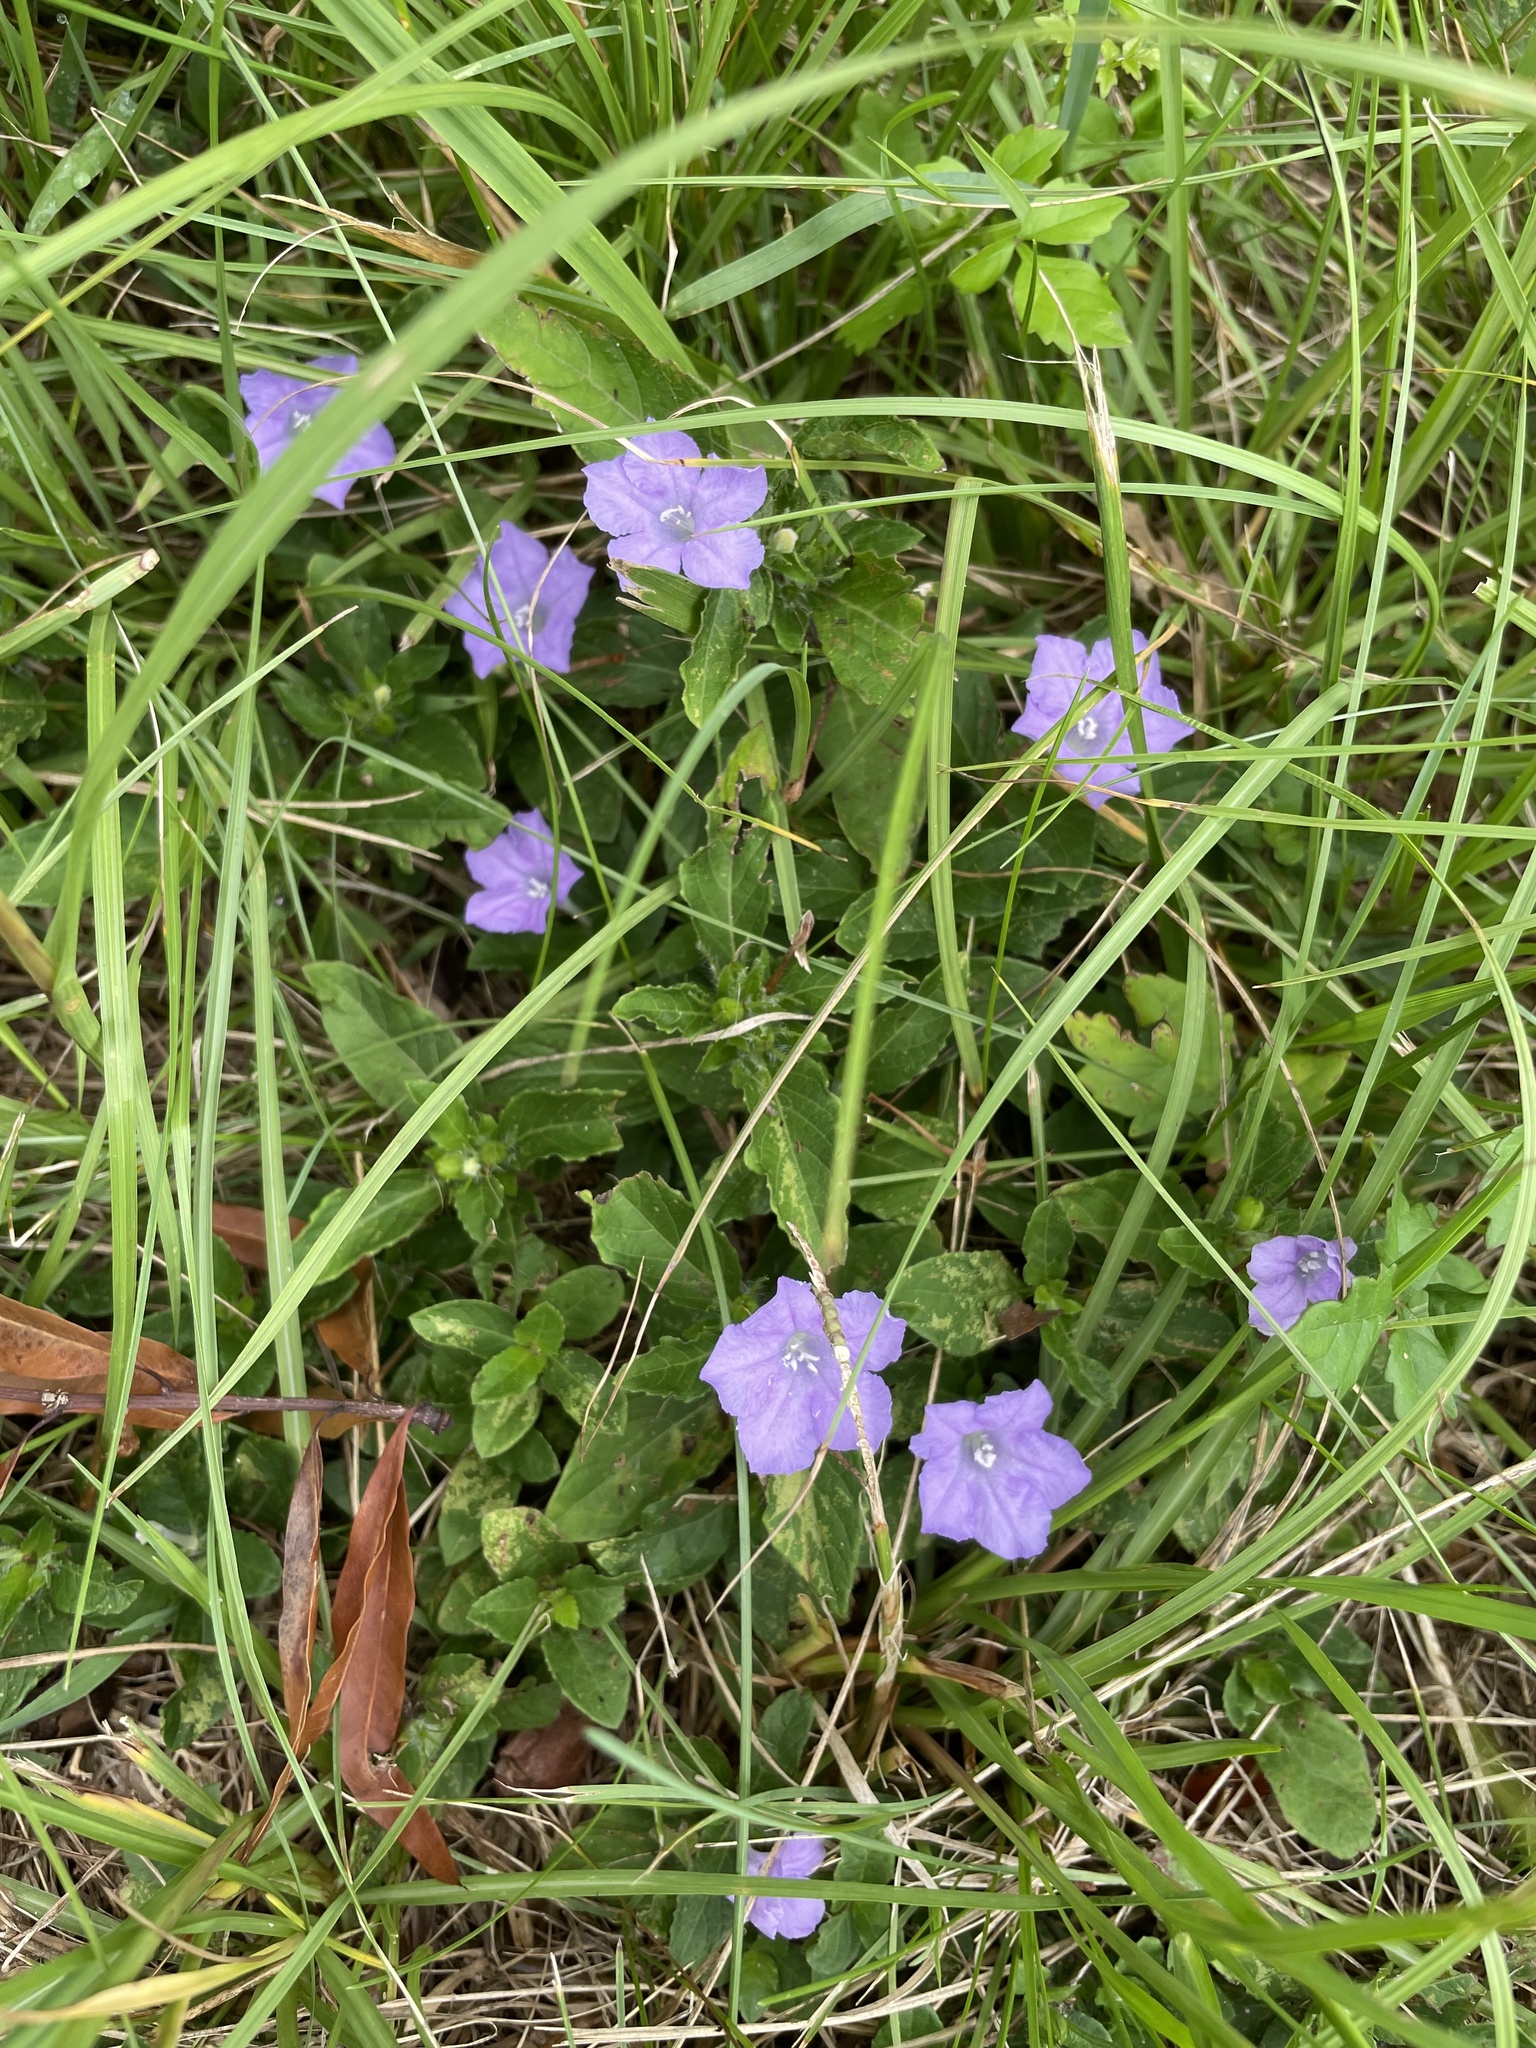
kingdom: Plantae
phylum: Tracheophyta
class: Magnoliopsida
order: Lamiales
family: Acanthaceae
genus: Ruellia
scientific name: Ruellia caroliniensis
